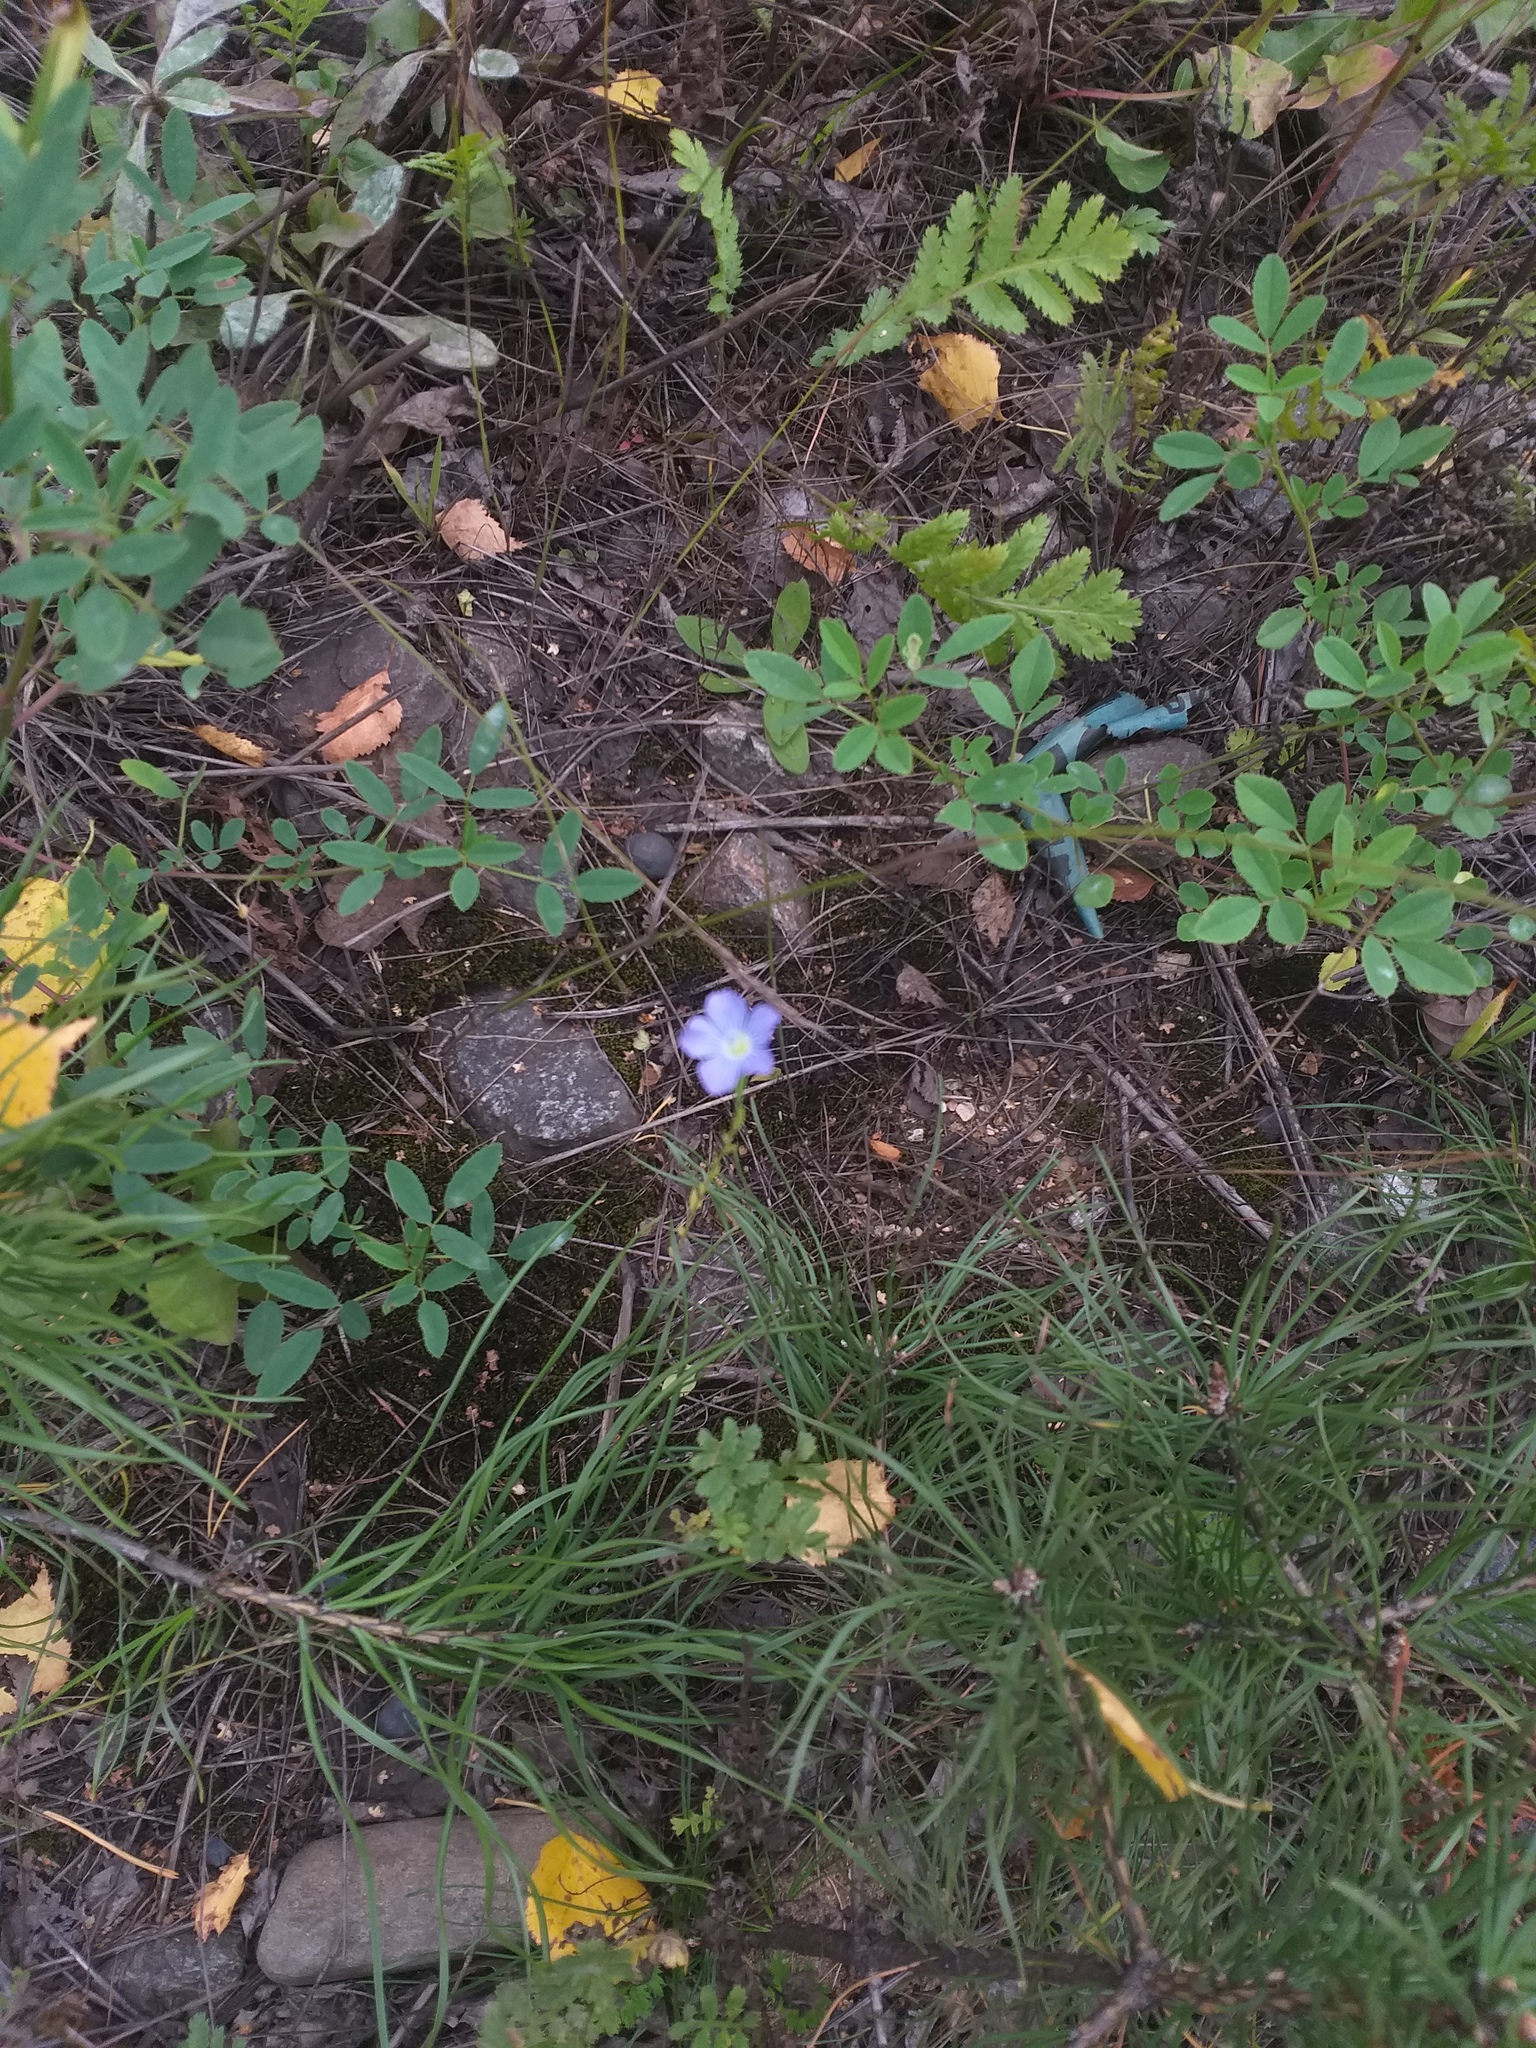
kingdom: Plantae
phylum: Tracheophyta
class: Magnoliopsida
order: Malpighiales
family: Linaceae
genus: Linum
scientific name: Linum usitatissimum
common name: Flax
